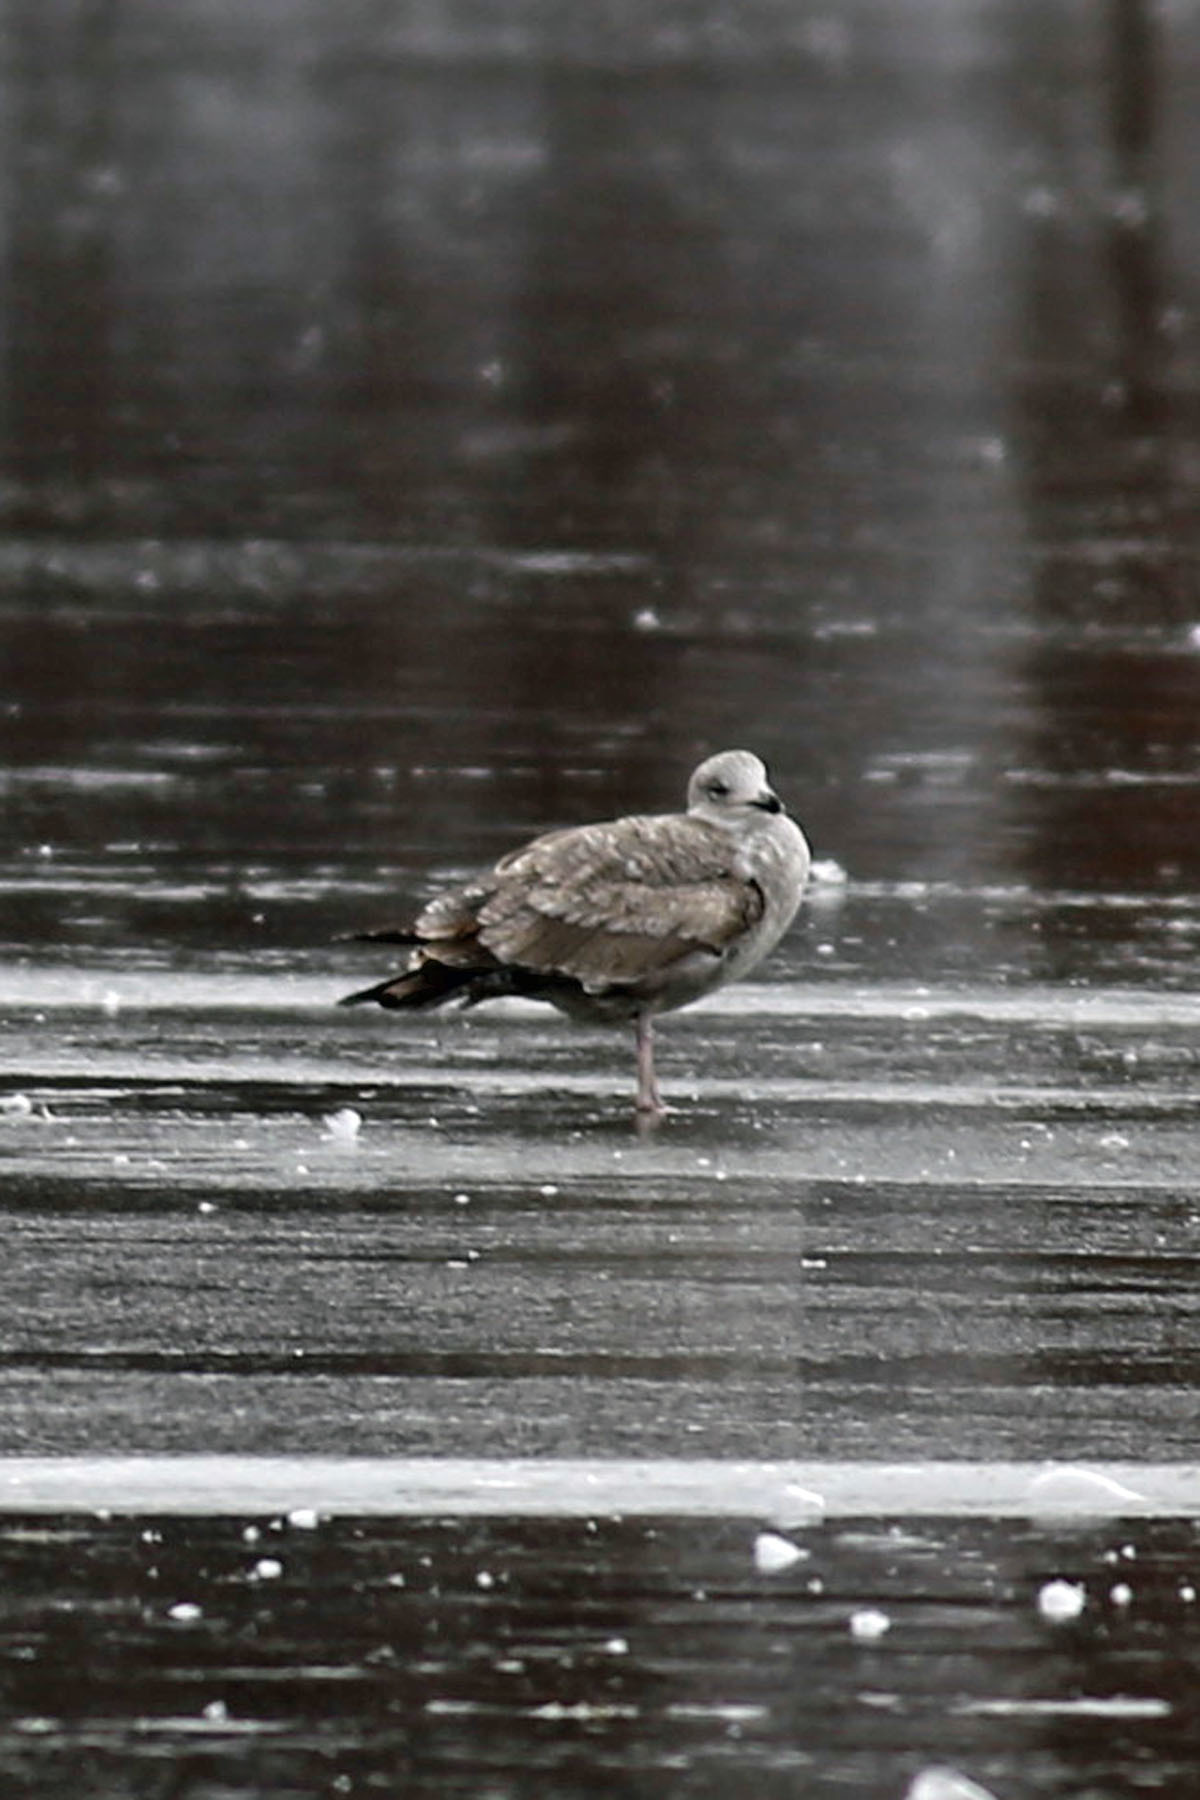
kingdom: Animalia
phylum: Chordata
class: Aves
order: Charadriiformes
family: Laridae
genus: Larus
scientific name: Larus argentatus
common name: Herring gull
